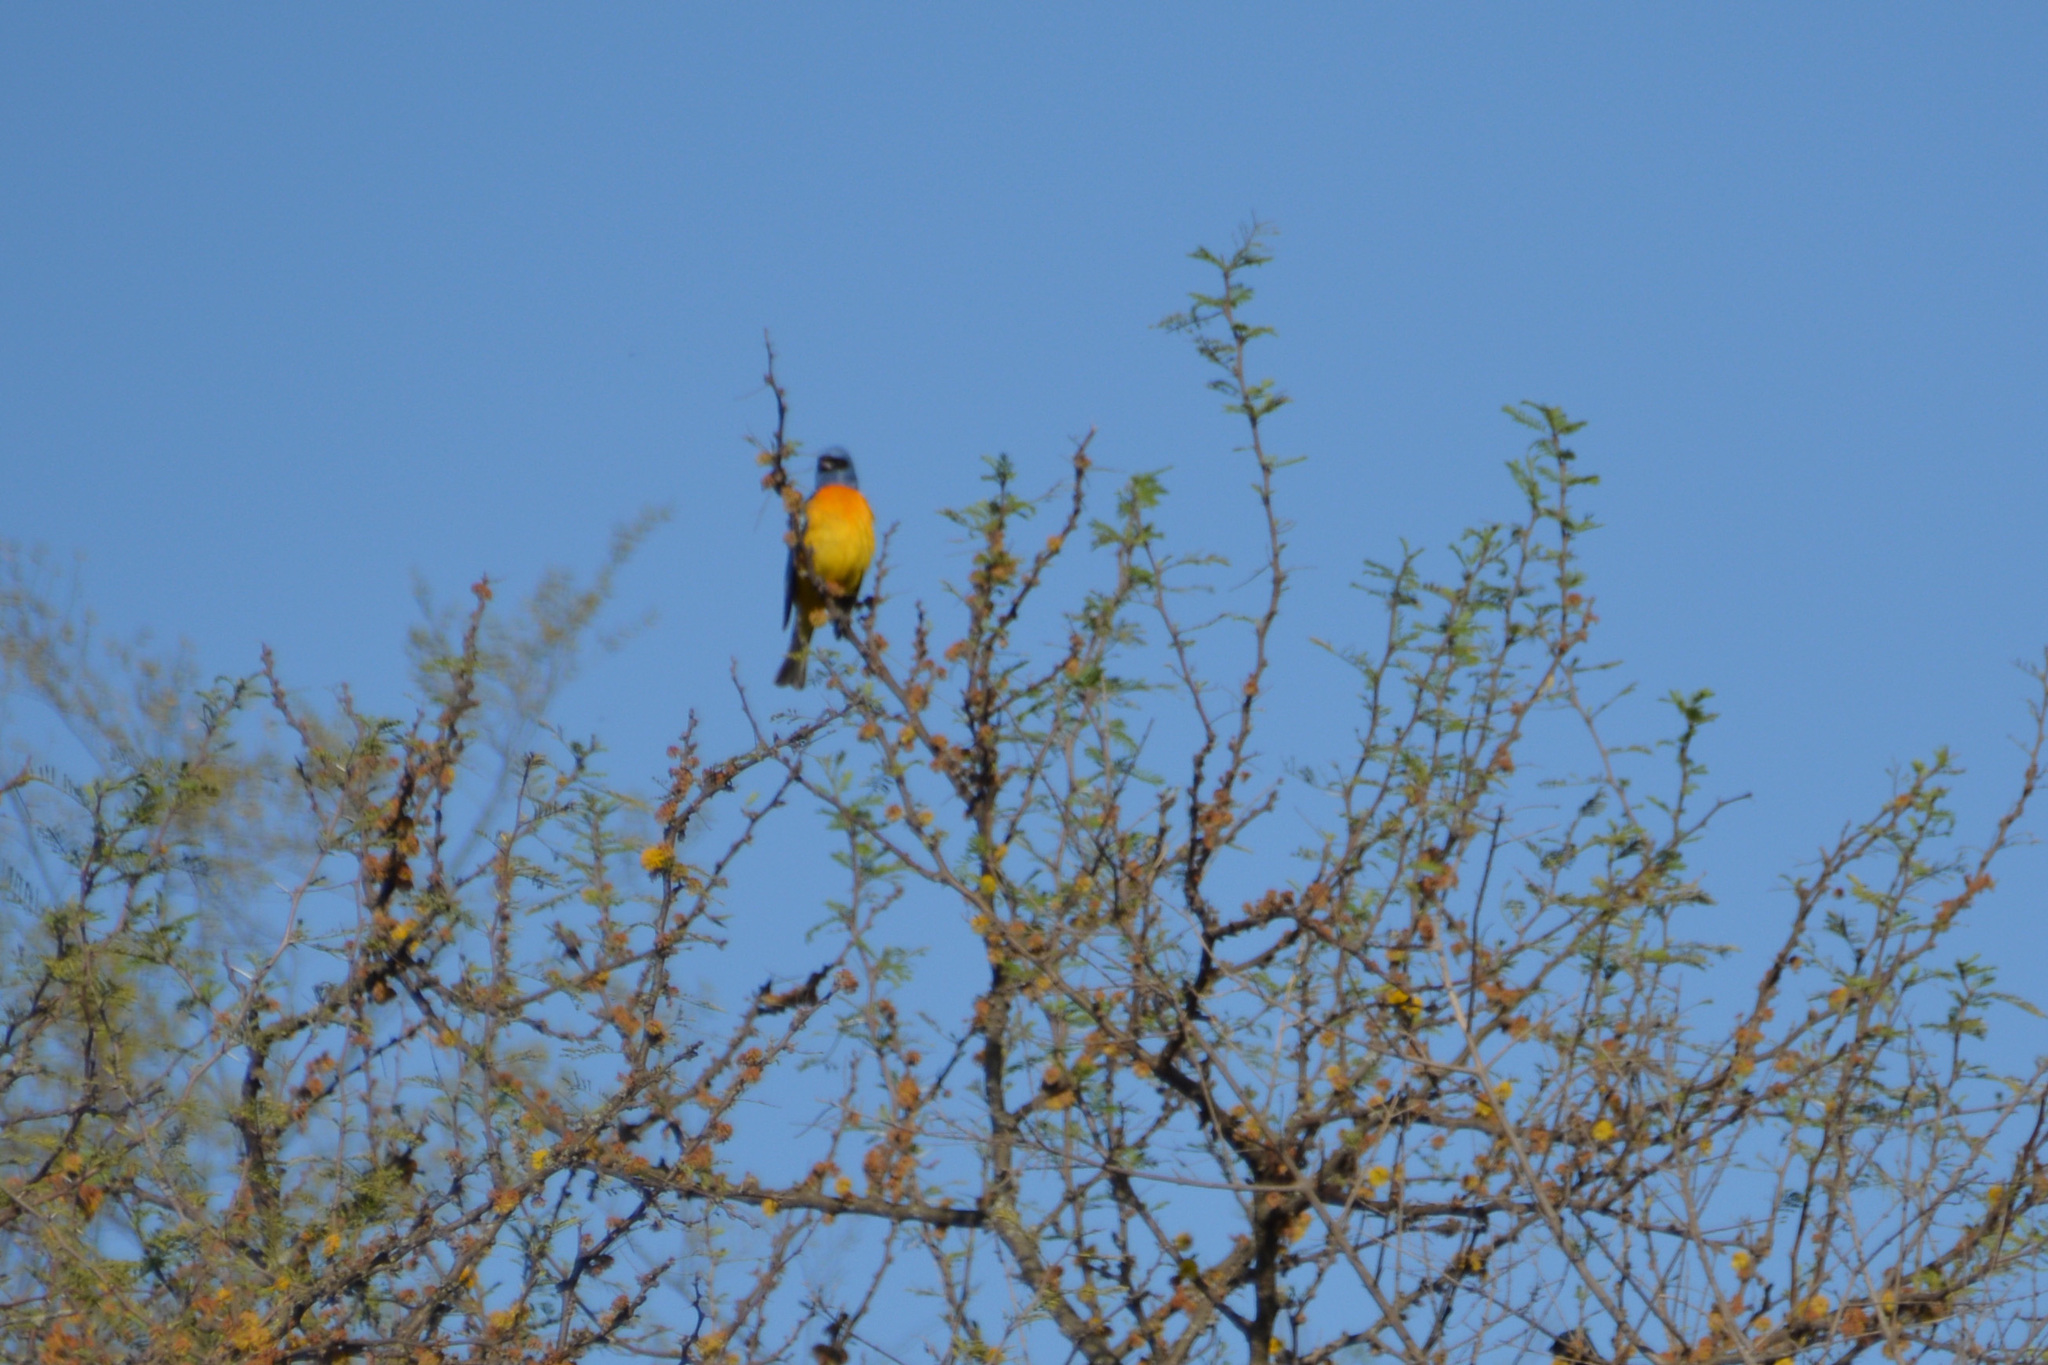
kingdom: Animalia
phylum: Chordata
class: Aves
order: Passeriformes
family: Thraupidae
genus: Rauenia
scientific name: Rauenia bonariensis
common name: Blue-and-yellow tanager
